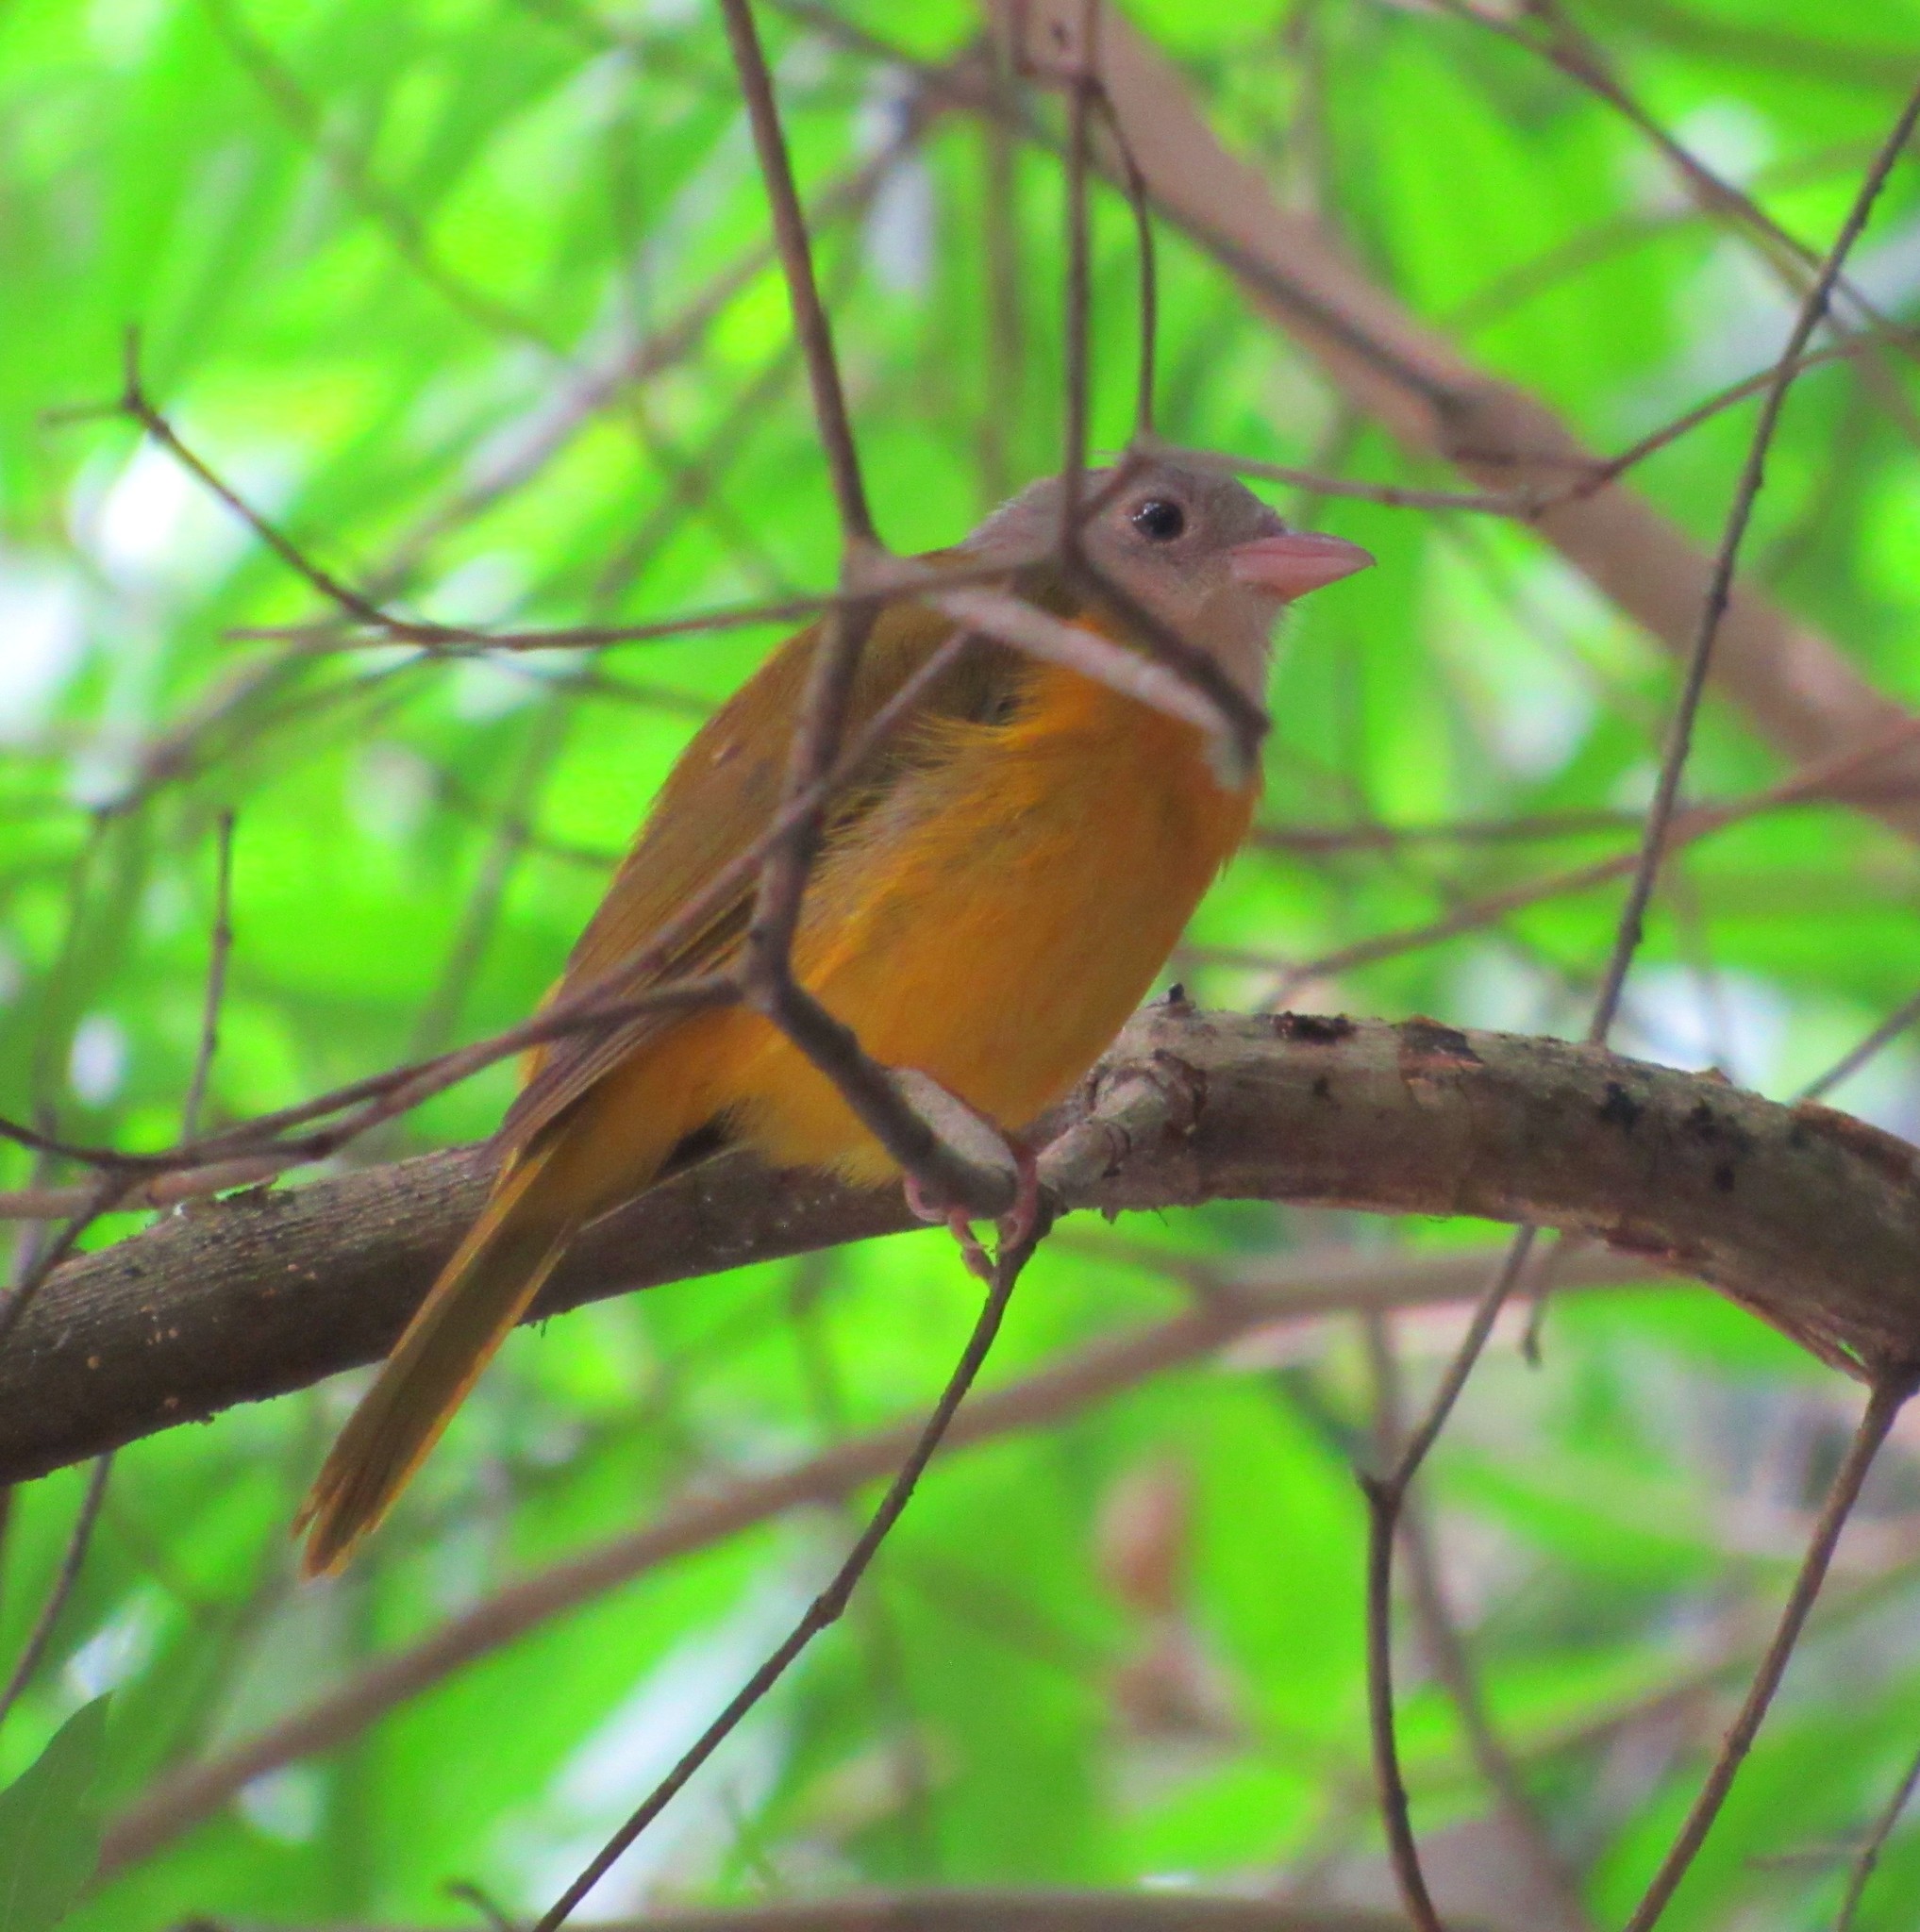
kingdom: Animalia
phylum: Chordata
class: Aves
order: Passeriformes
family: Thraupidae
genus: Eucometis
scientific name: Eucometis penicillata
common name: Grey-headed tanager
